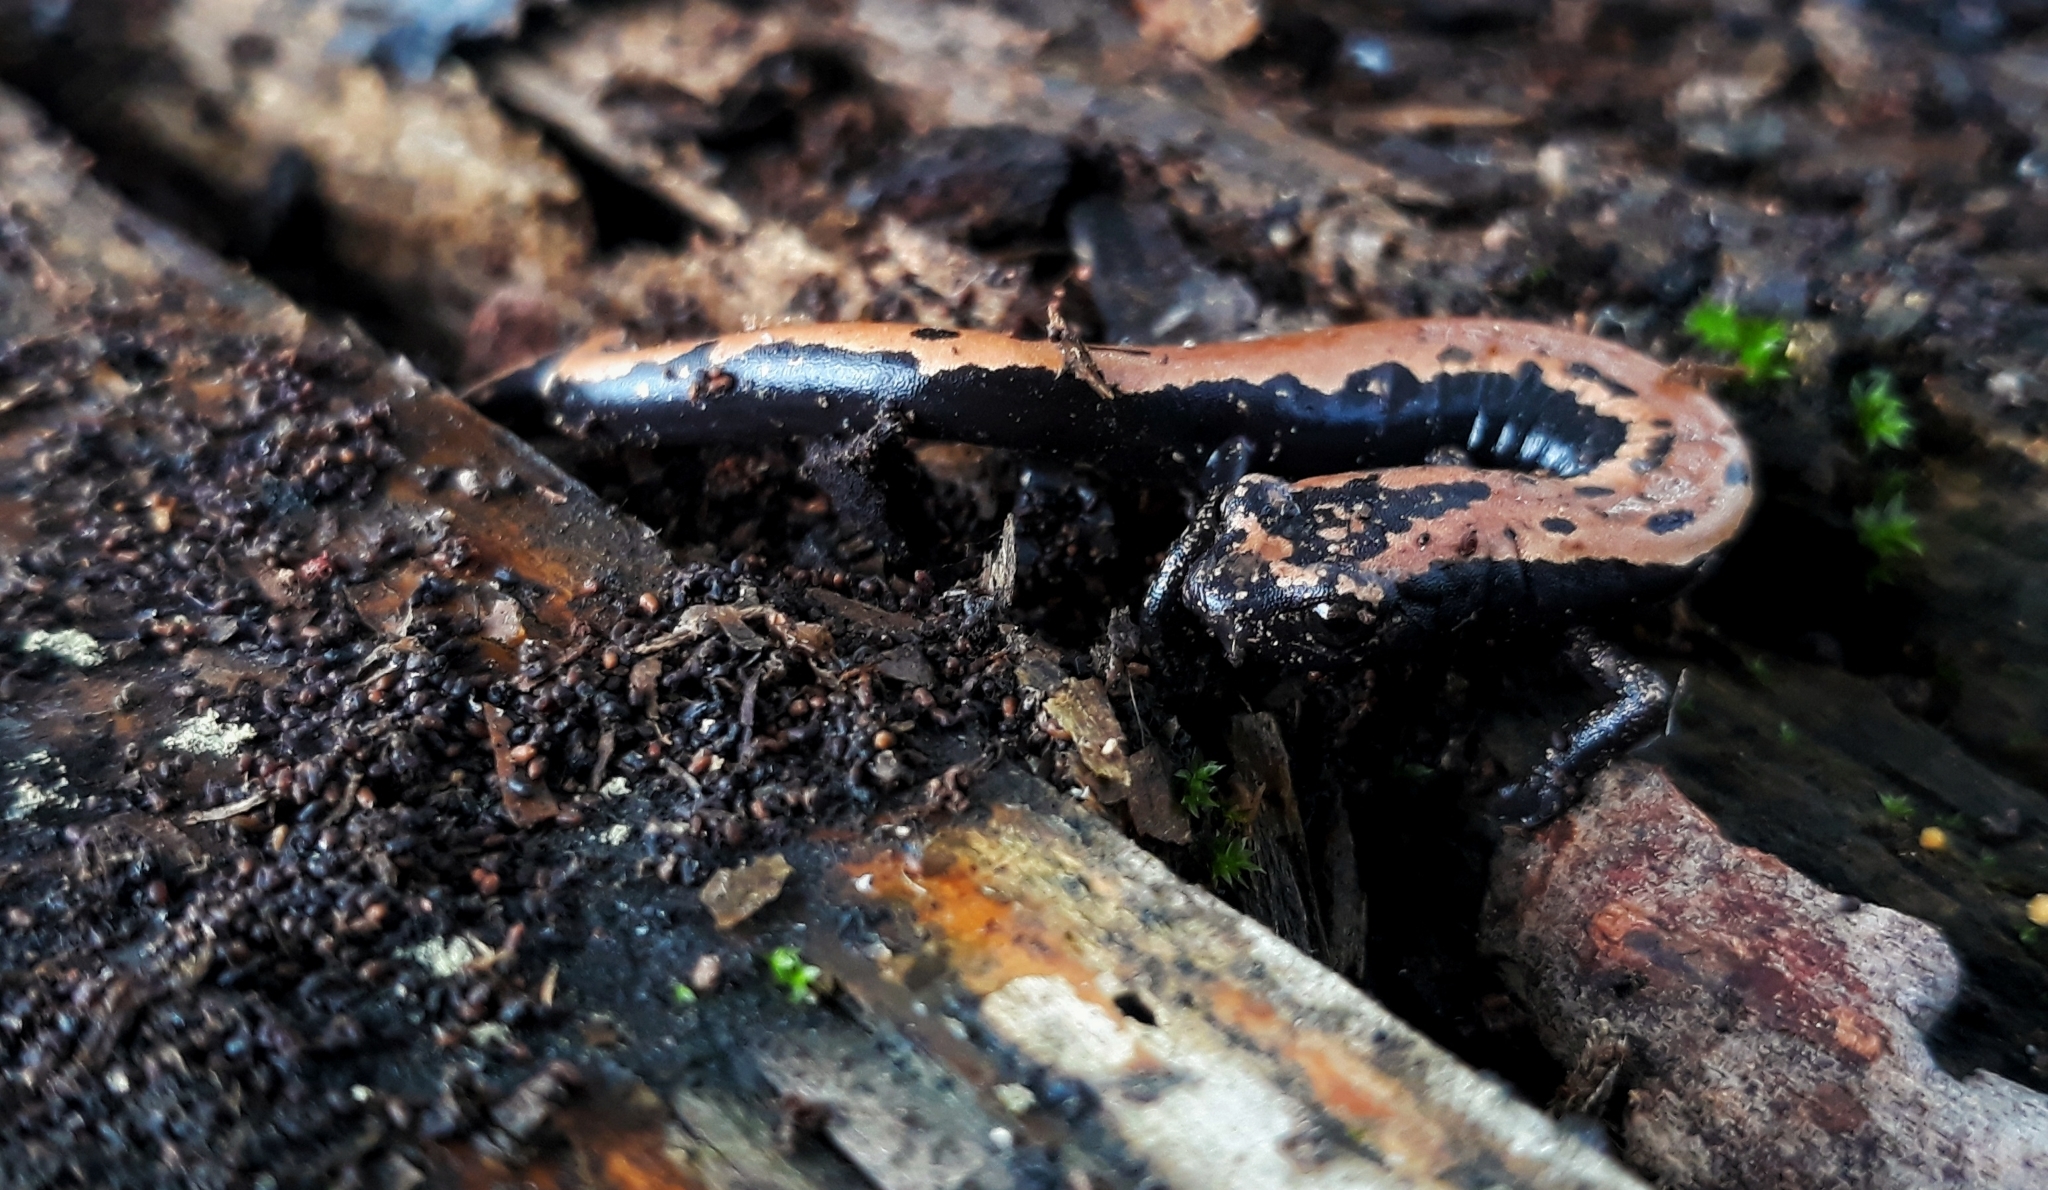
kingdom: Animalia
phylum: Chordata
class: Amphibia
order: Caudata
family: Plethodontidae
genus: Bolitoglossa
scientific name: Bolitoglossa platydactyla
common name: Broad-footed salamander
